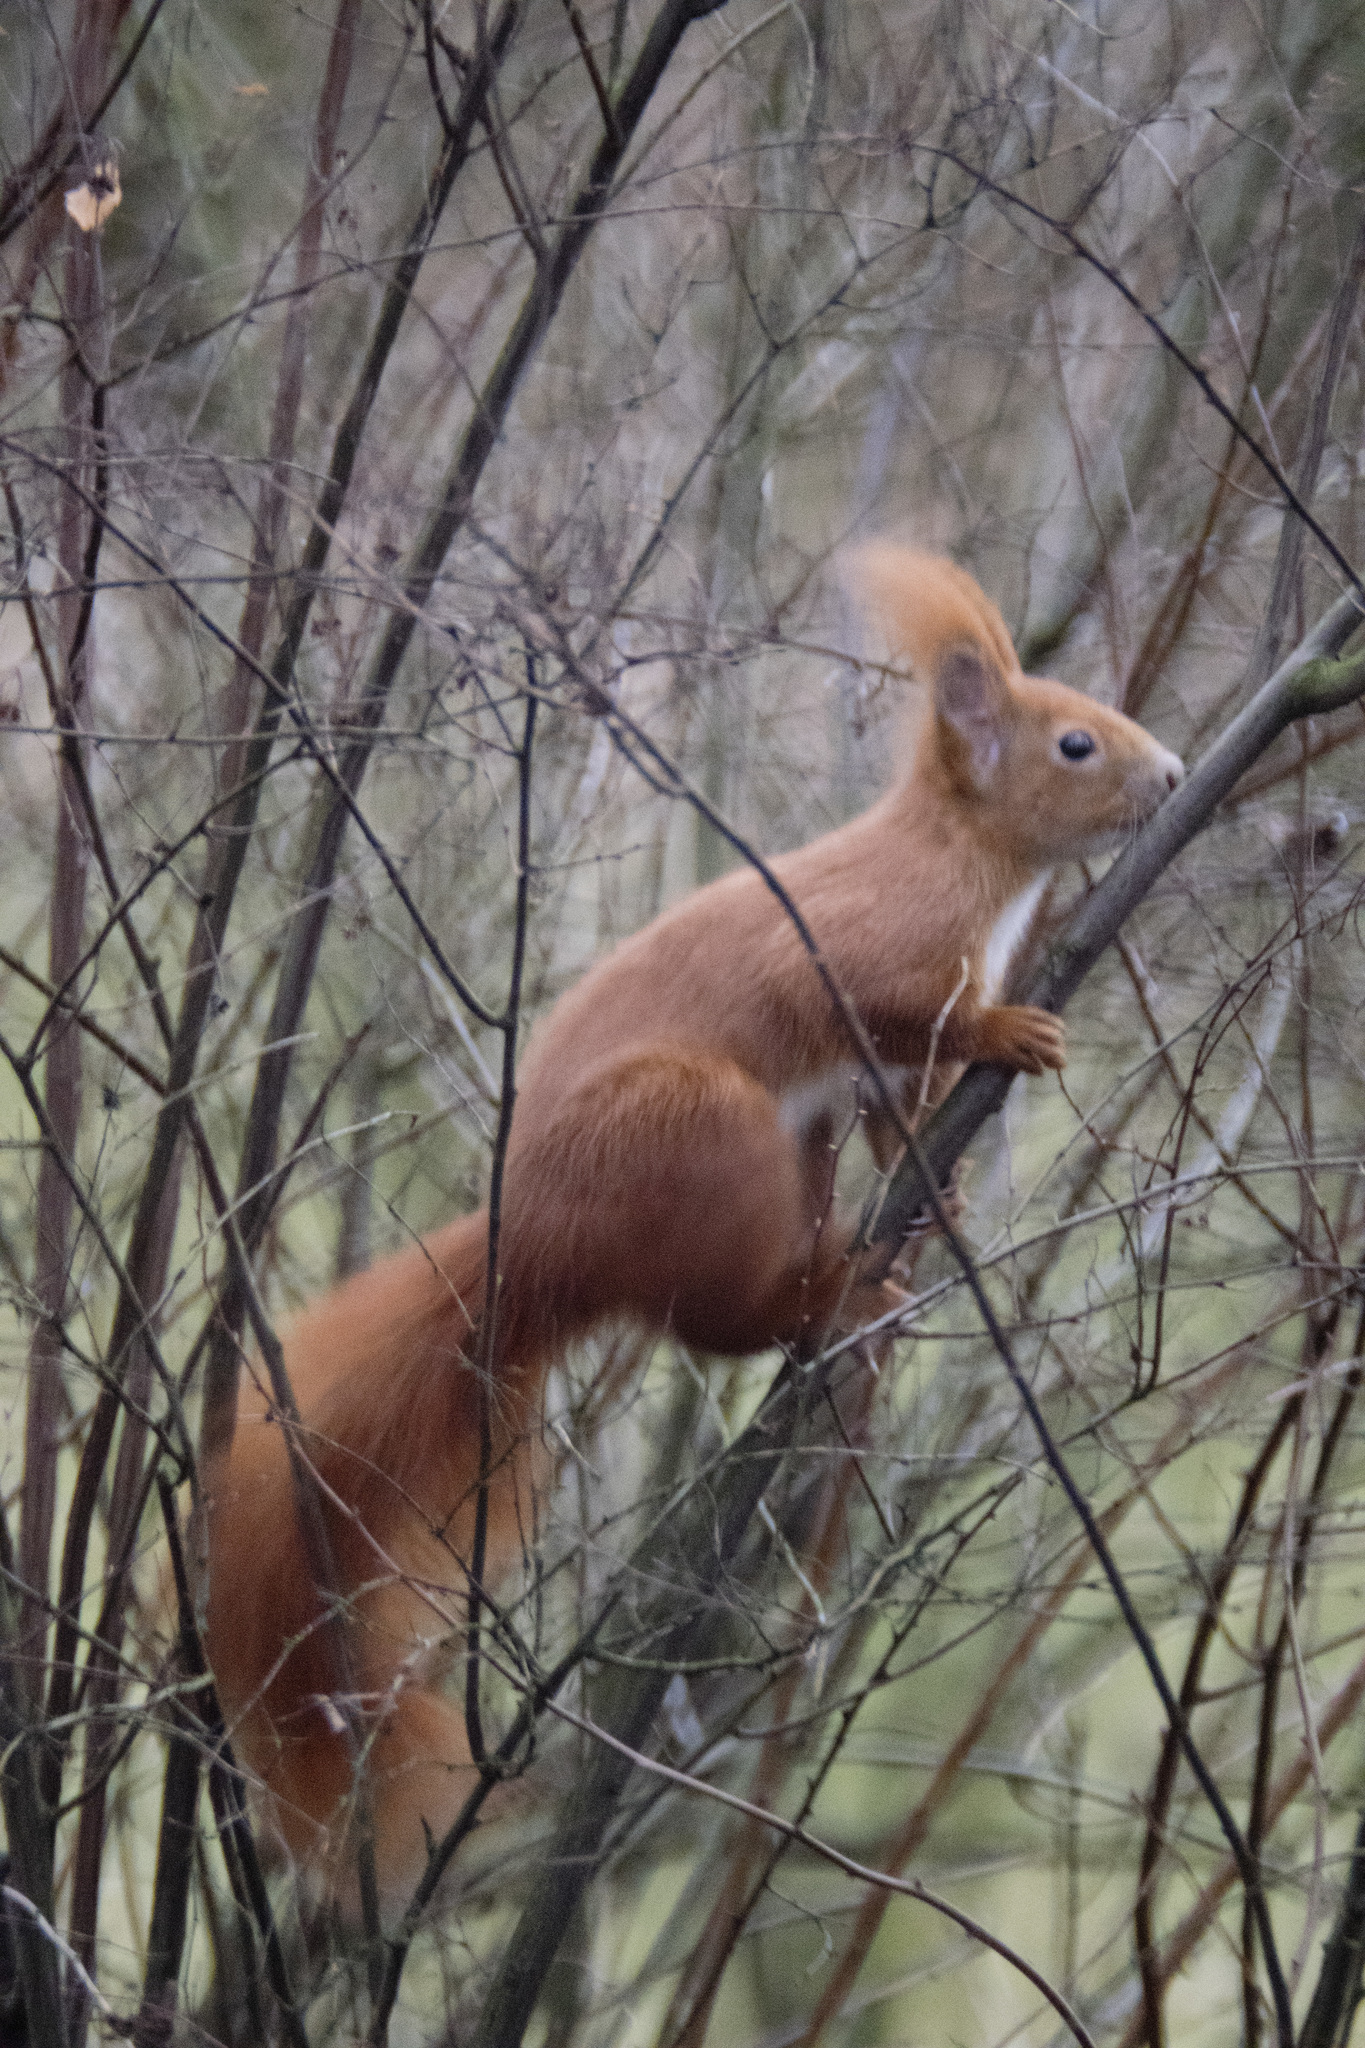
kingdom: Animalia
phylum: Chordata
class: Mammalia
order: Rodentia
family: Sciuridae
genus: Sciurus
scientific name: Sciurus vulgaris
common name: Eurasian red squirrel
